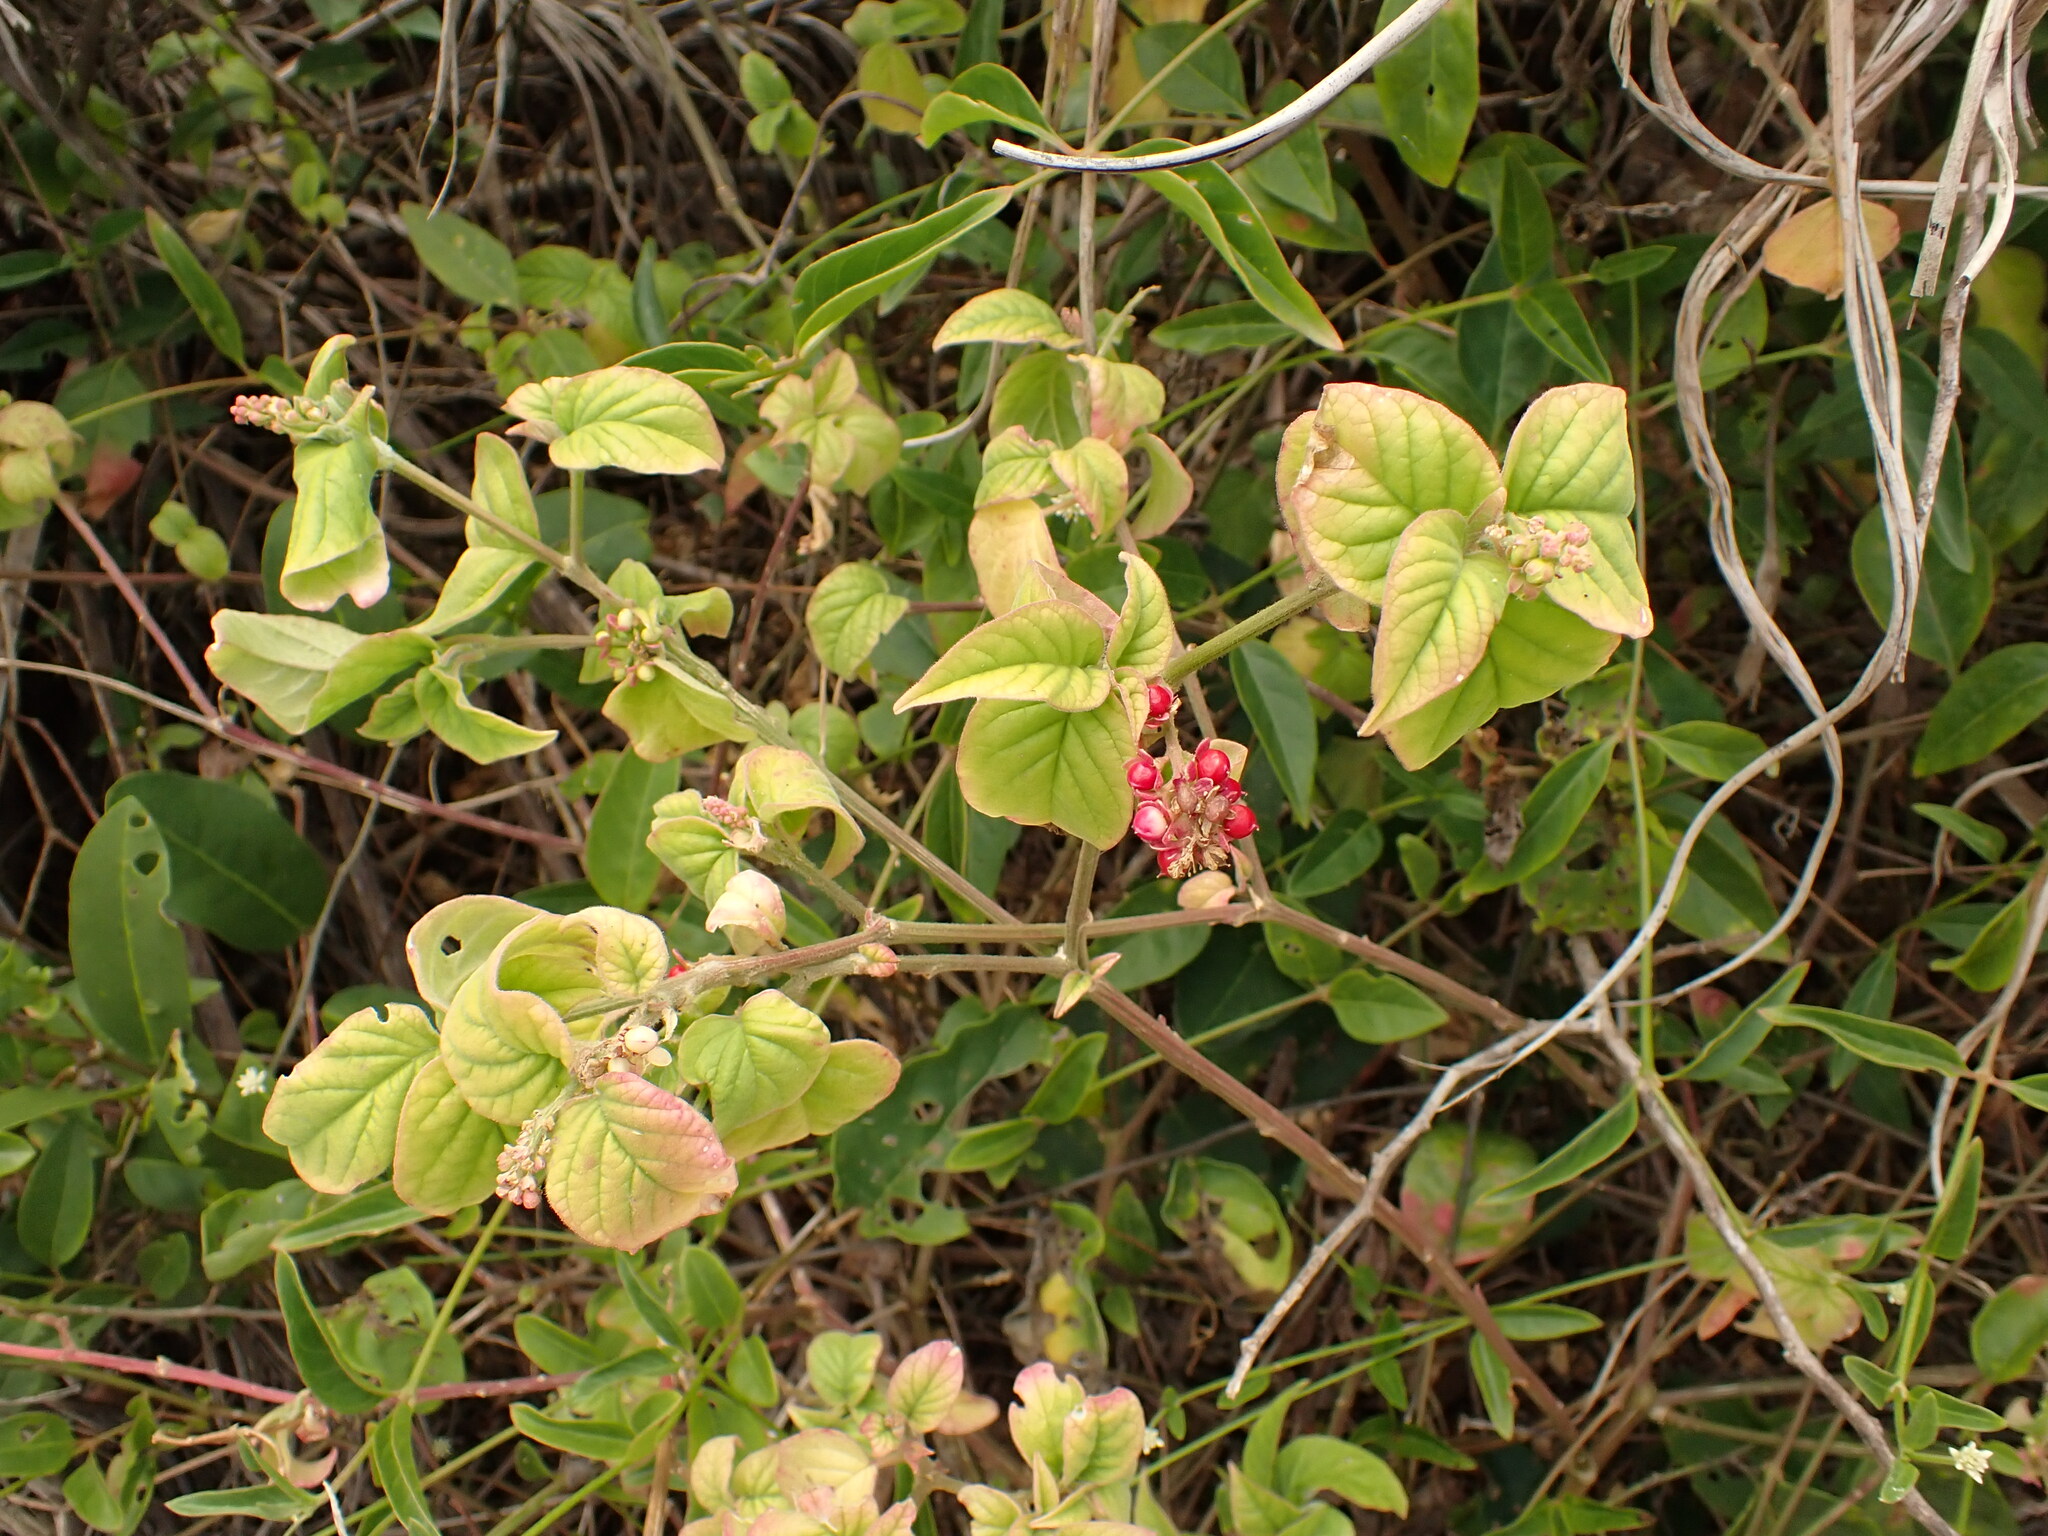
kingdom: Plantae
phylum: Tracheophyta
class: Magnoliopsida
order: Caryophyllales
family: Phytolaccaceae
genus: Rivina
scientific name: Rivina humilis
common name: Rougeplant
